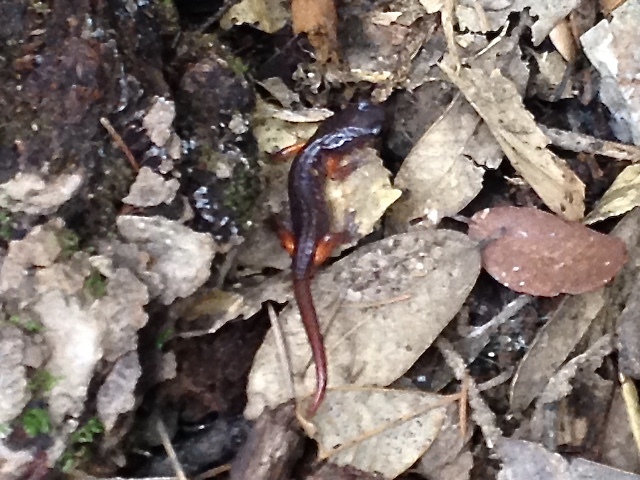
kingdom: Animalia
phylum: Chordata
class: Amphibia
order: Caudata
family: Plethodontidae
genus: Ensatina
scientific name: Ensatina eschscholtzii
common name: Ensatina
